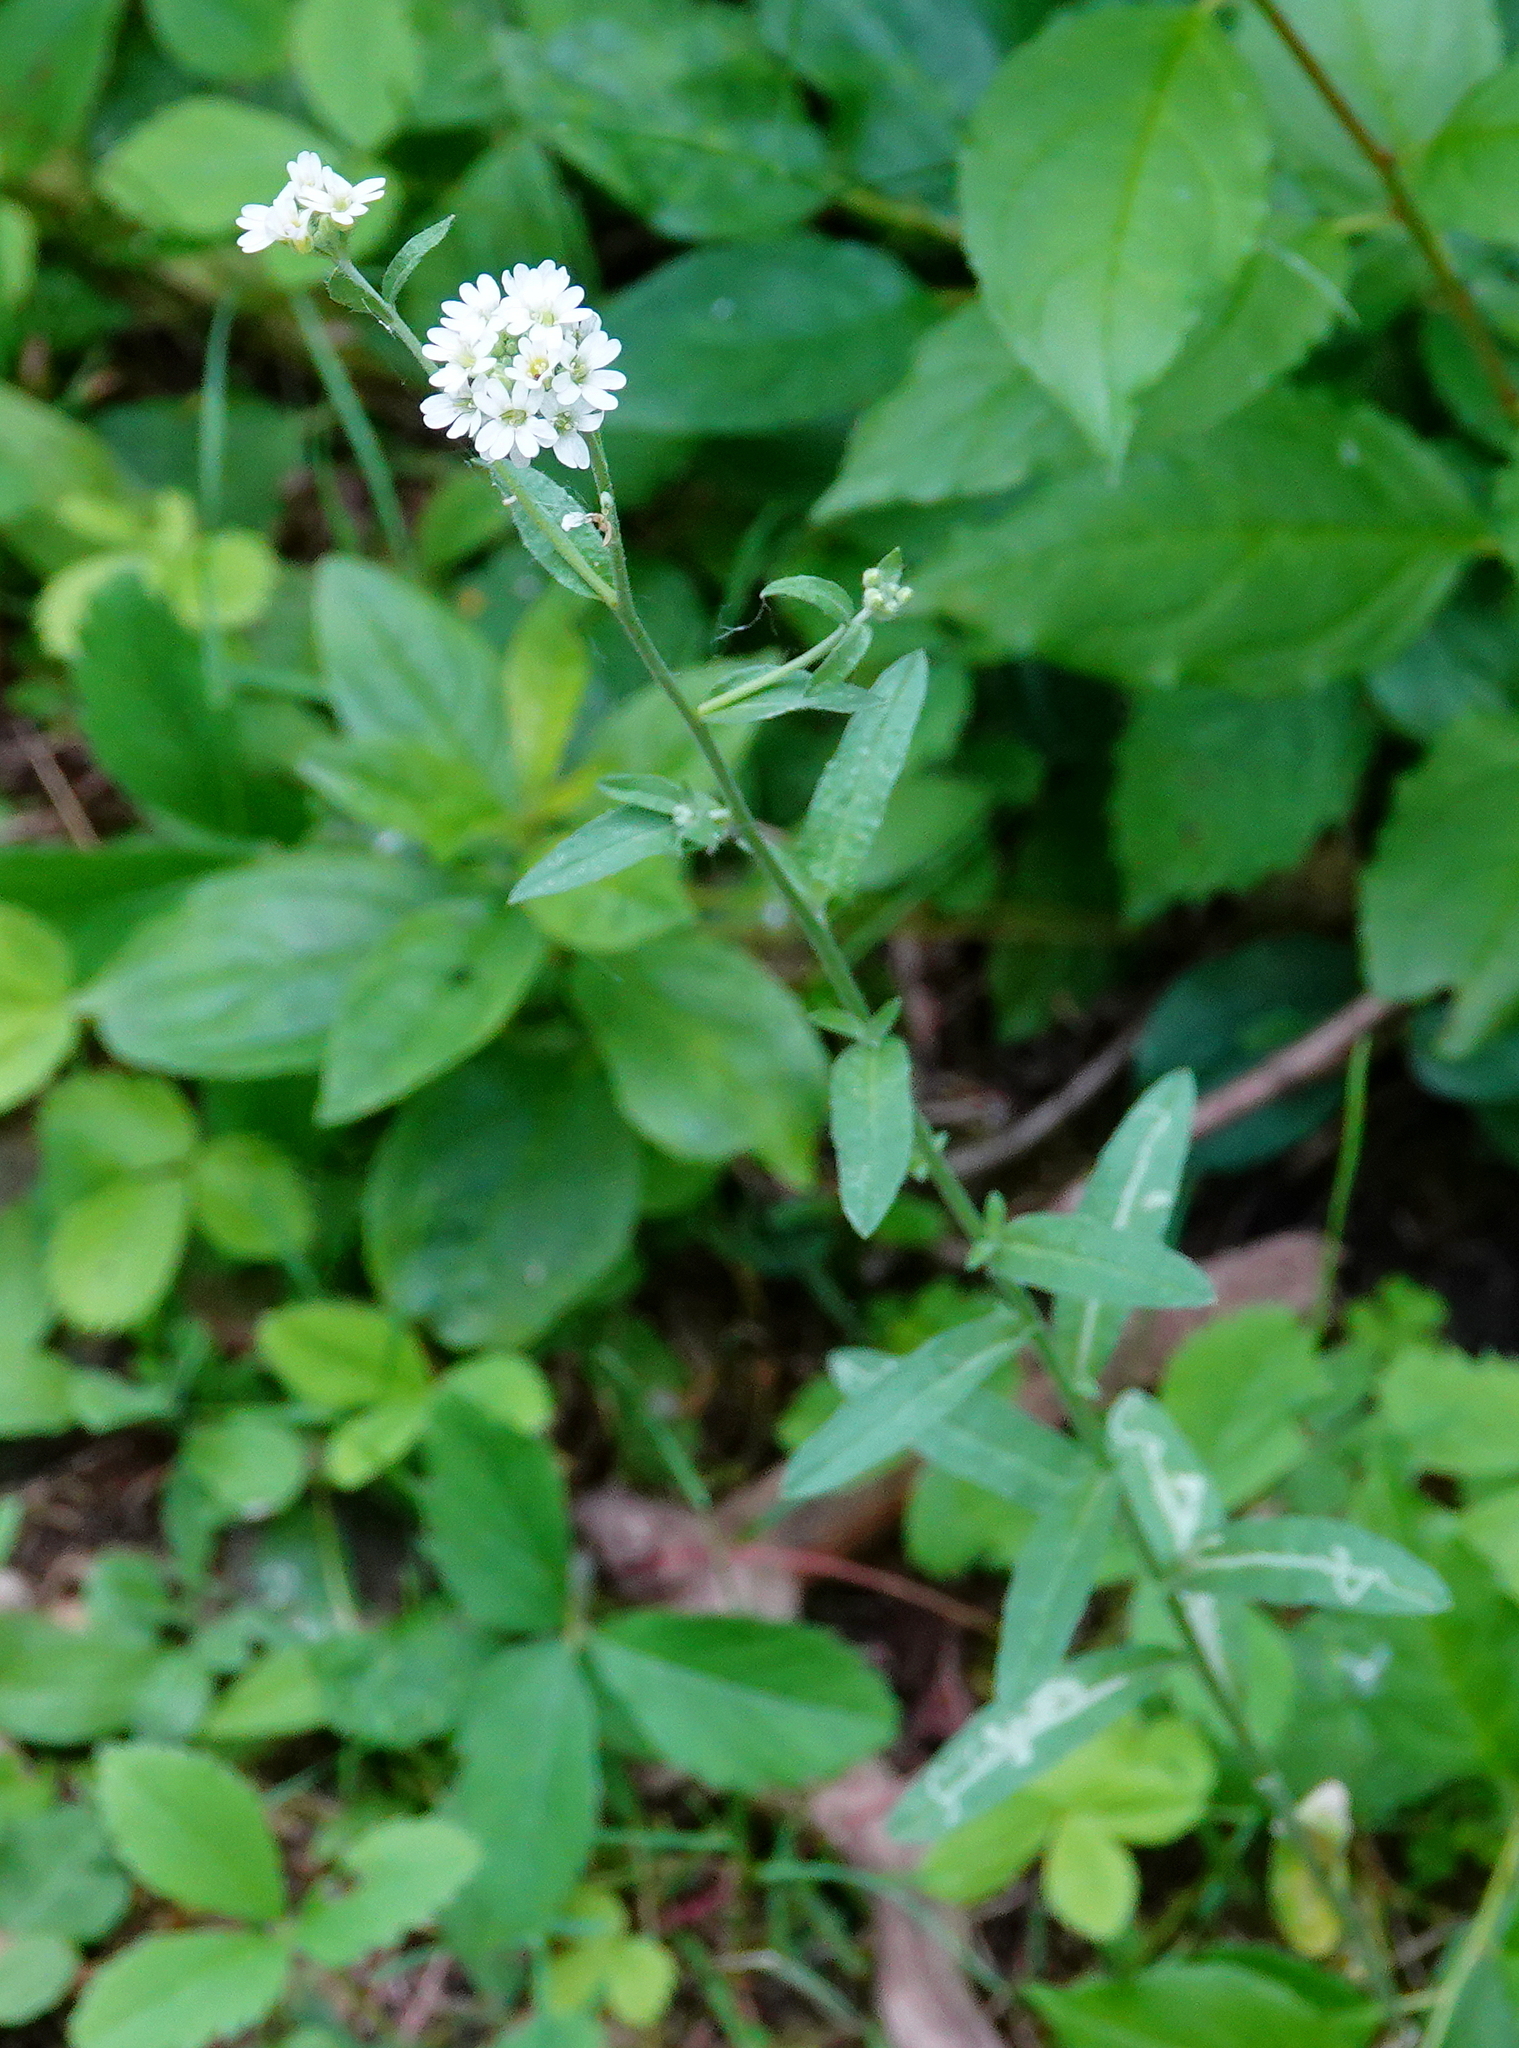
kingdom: Plantae
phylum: Tracheophyta
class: Magnoliopsida
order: Brassicales
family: Brassicaceae
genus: Berteroa
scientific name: Berteroa incana
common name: Hoary alison
